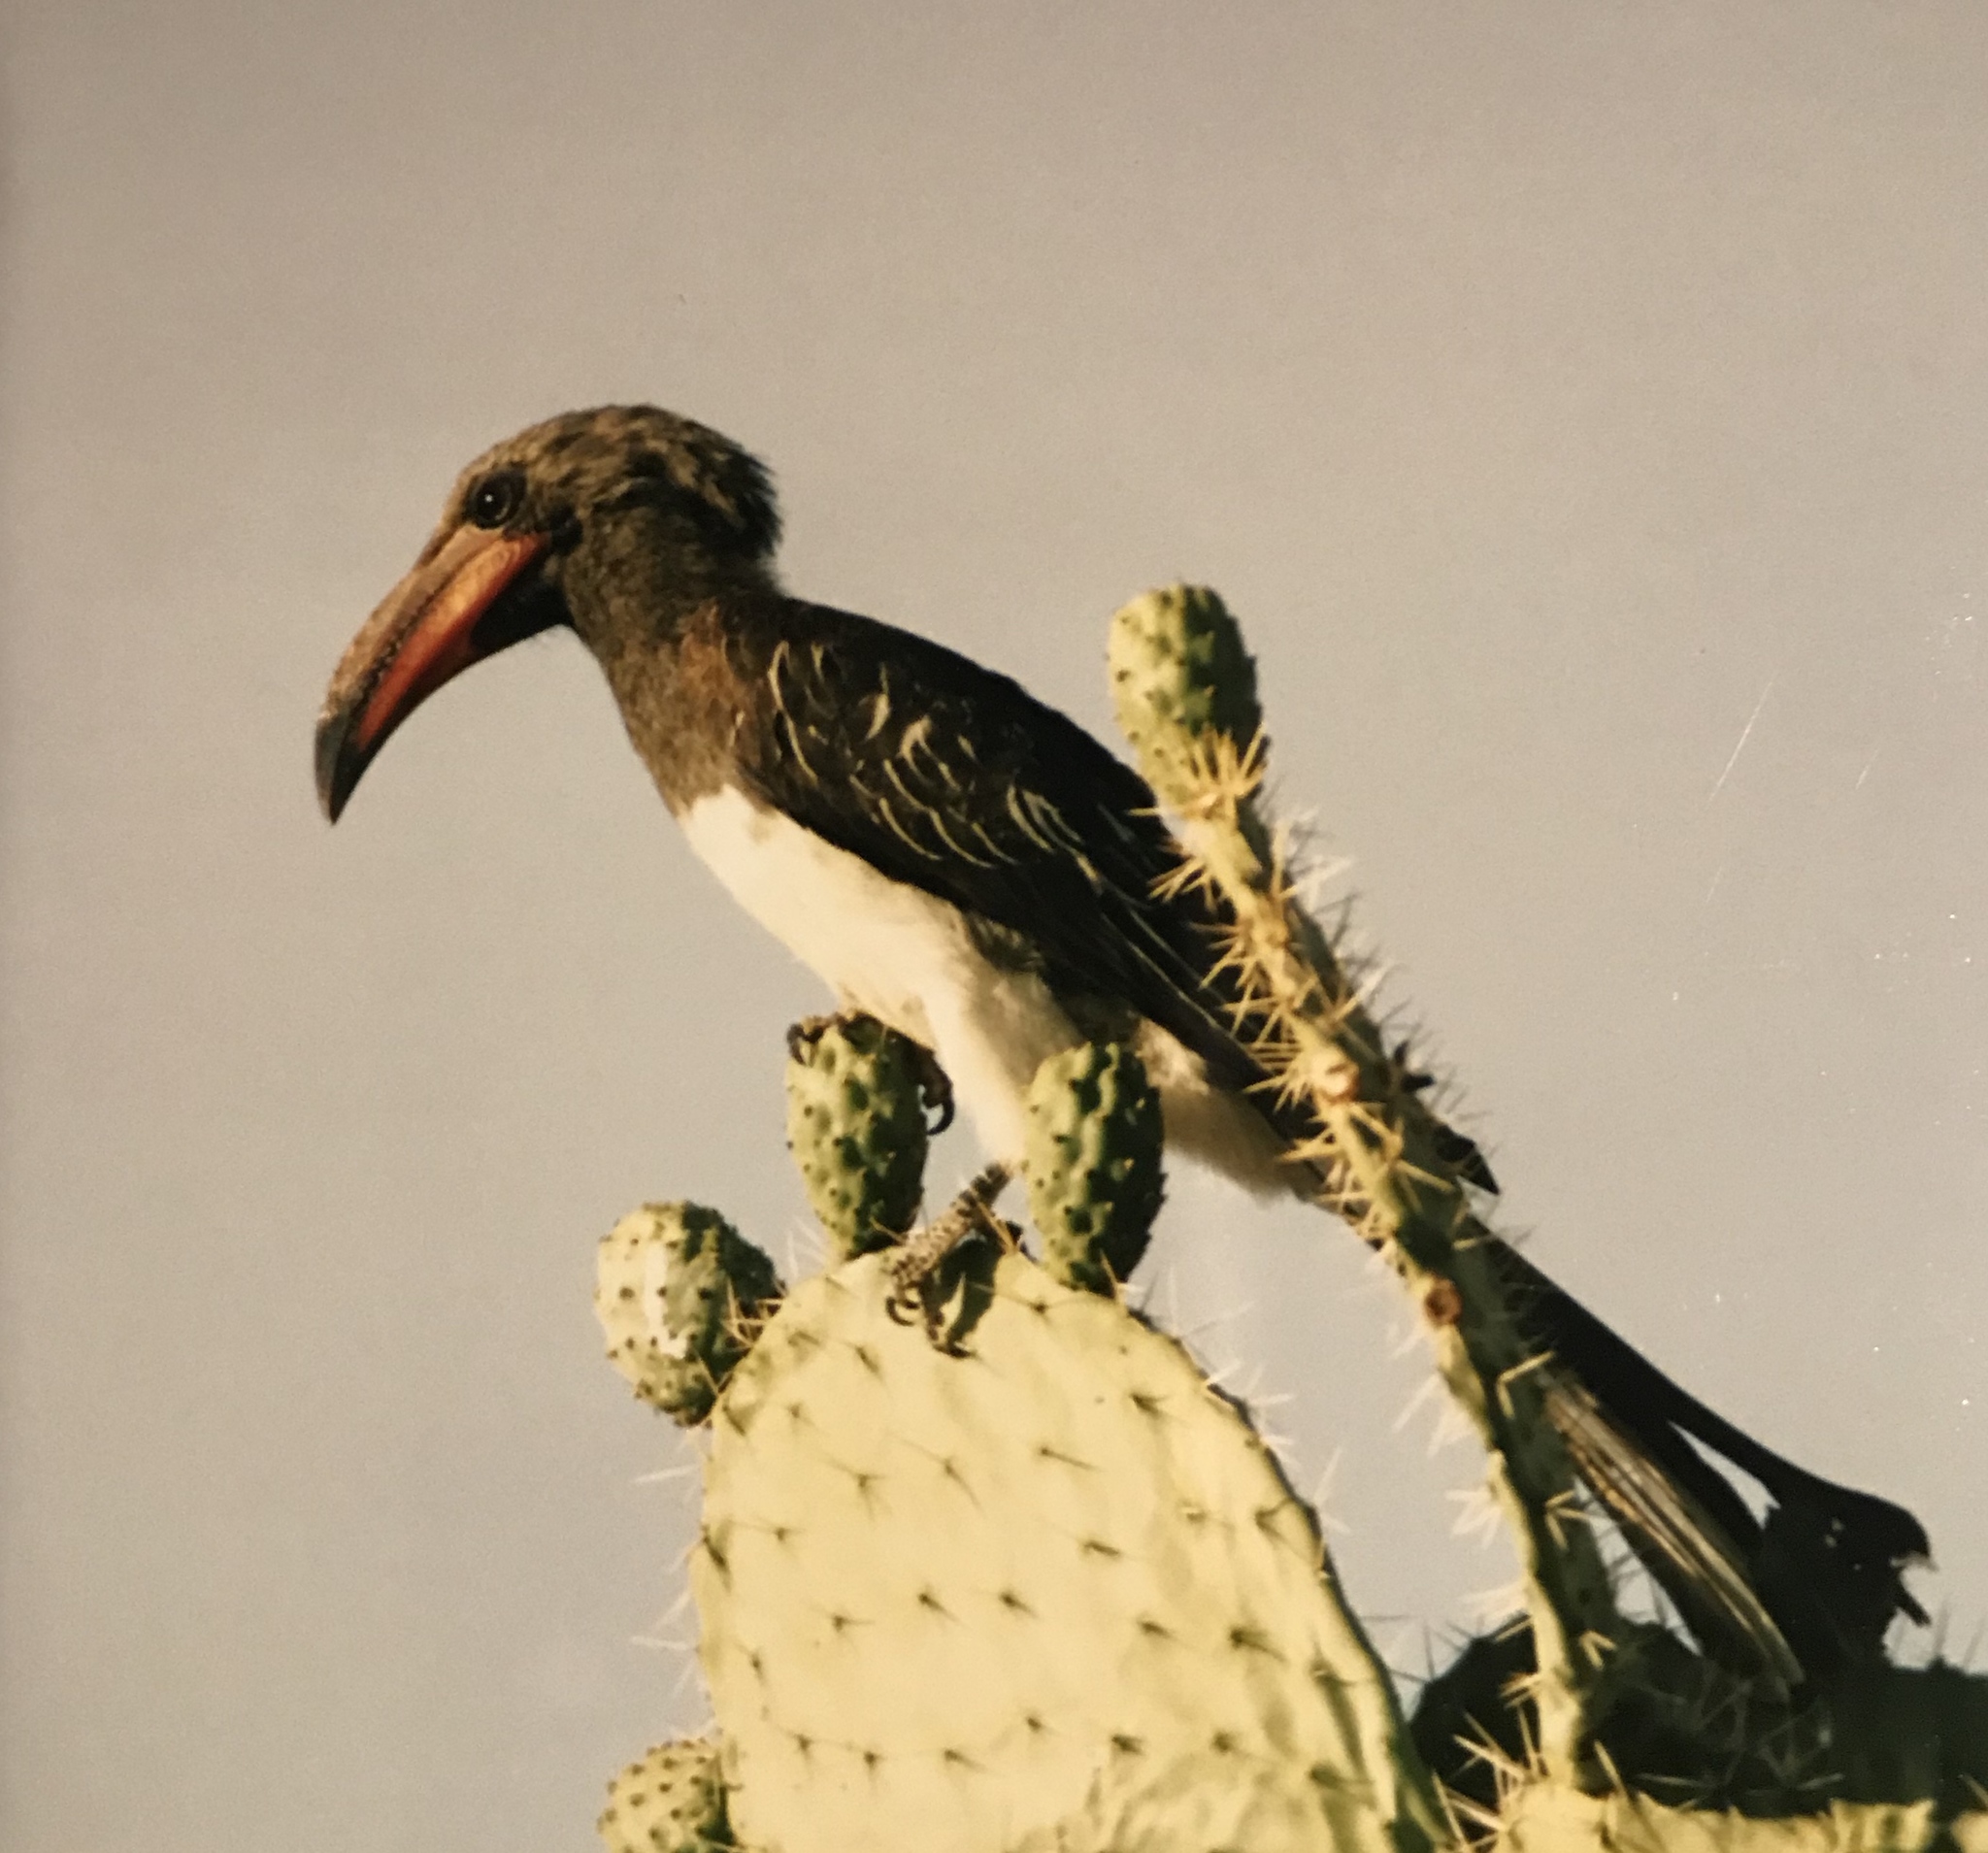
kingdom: Animalia
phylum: Chordata
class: Aves
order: Bucerotiformes
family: Bucerotidae
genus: Lophoceros
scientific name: Lophoceros hemprichii
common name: Hemprich's hornbill
